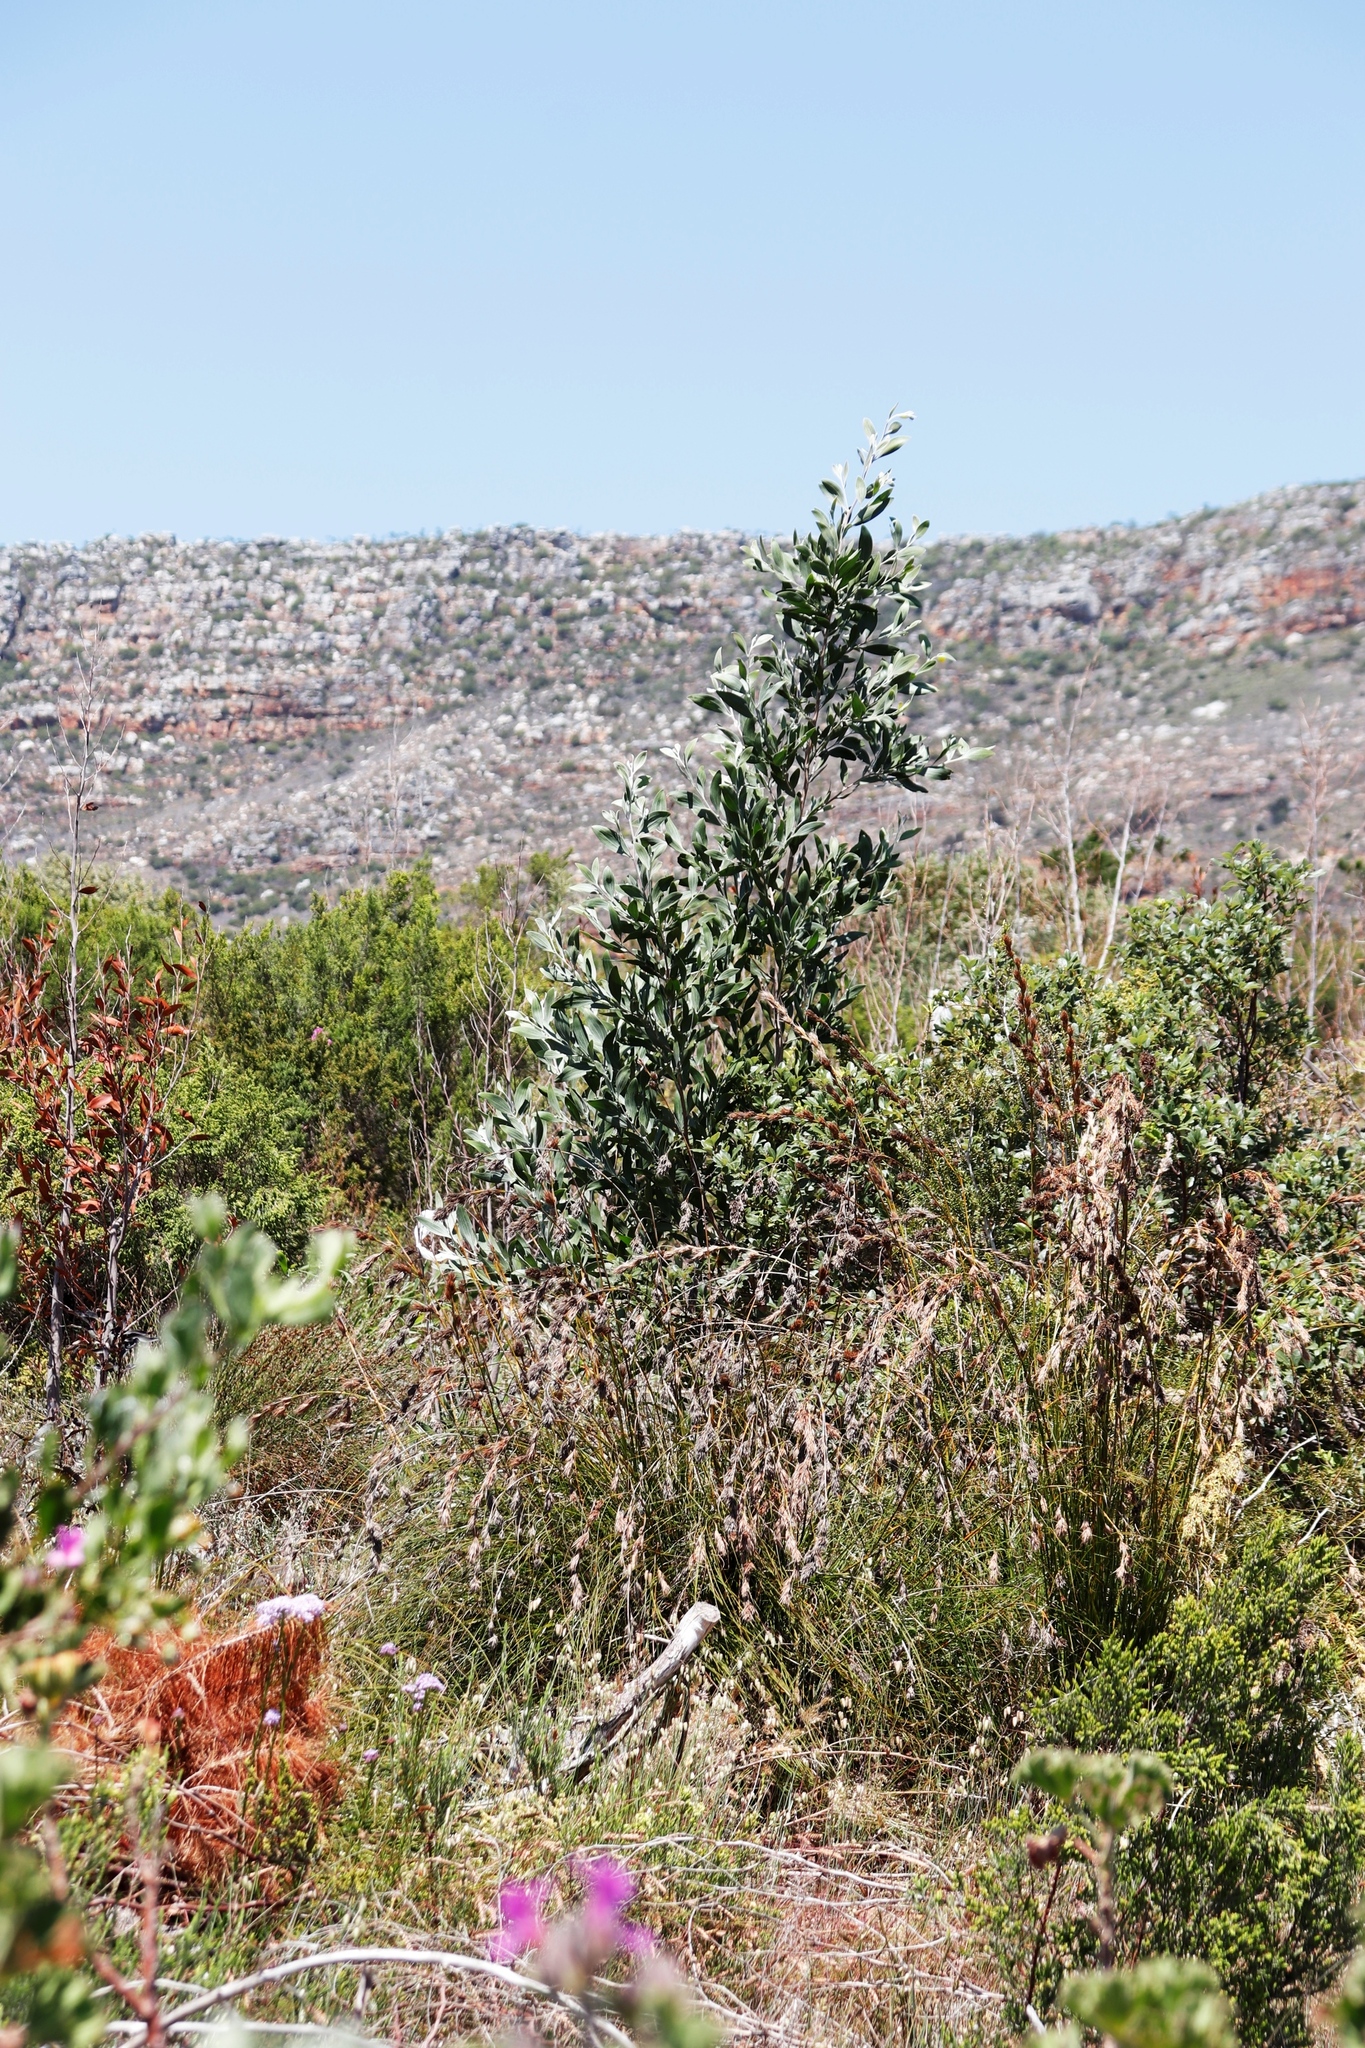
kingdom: Plantae
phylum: Tracheophyta
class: Magnoliopsida
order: Fabales
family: Fabaceae
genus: Acacia
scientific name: Acacia melanoxylon
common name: Blackwood
